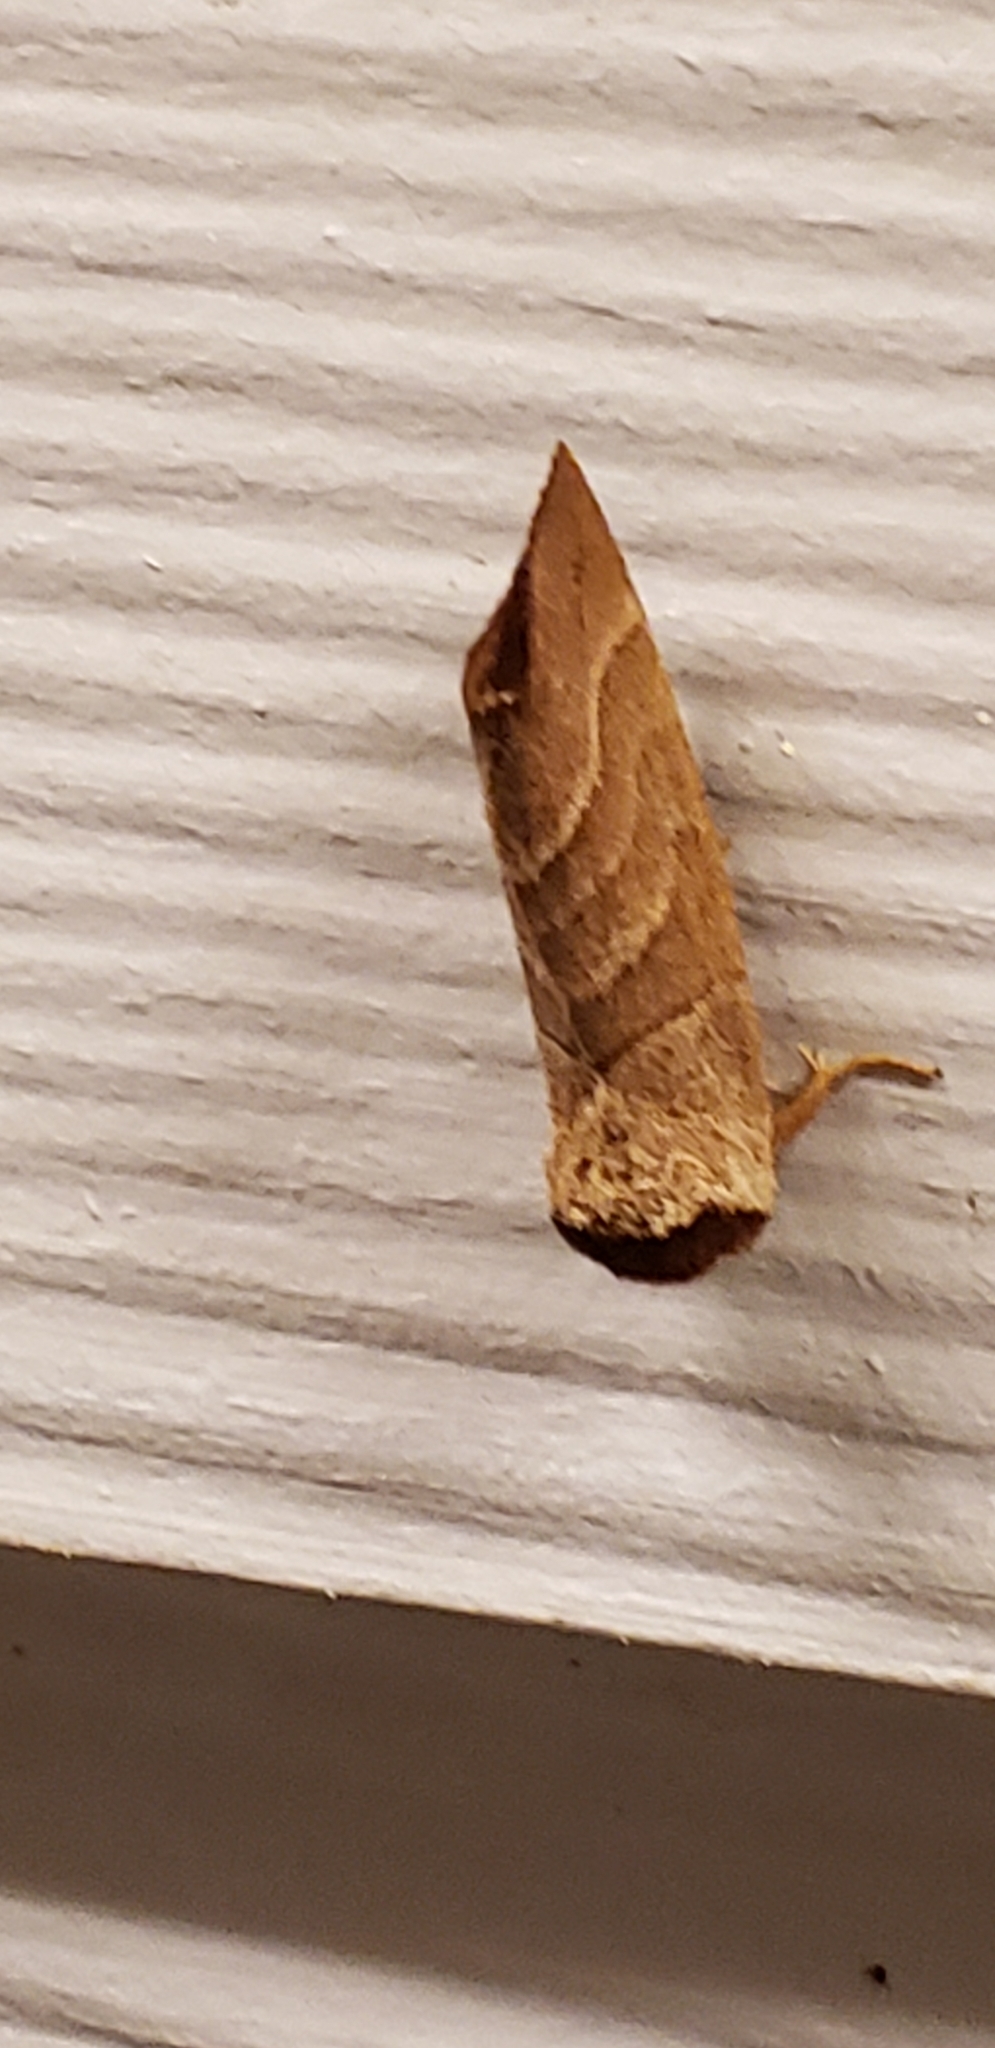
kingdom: Animalia
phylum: Arthropoda
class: Insecta
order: Lepidoptera
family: Notodontidae
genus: Datana
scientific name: Datana integerrima
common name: Walnut caterpillar
